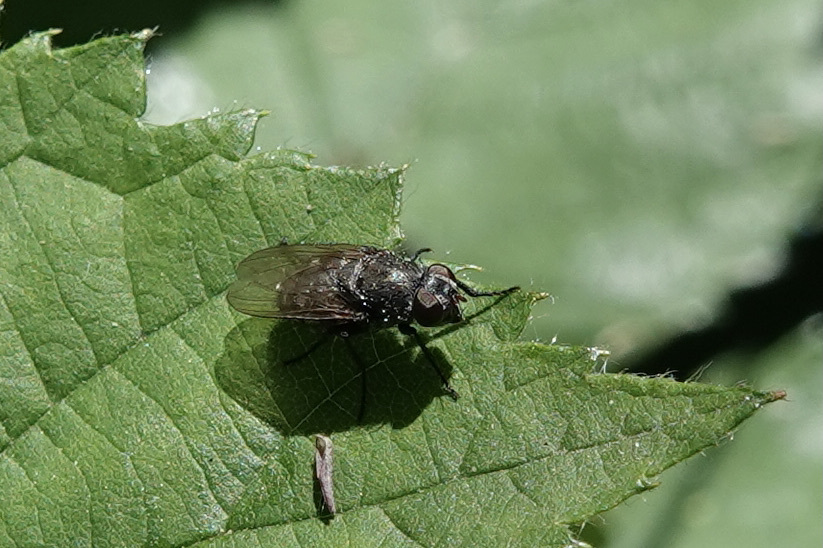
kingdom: Animalia
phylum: Arthropoda
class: Insecta
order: Diptera
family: Polleniidae
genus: Pollenia
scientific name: Pollenia
